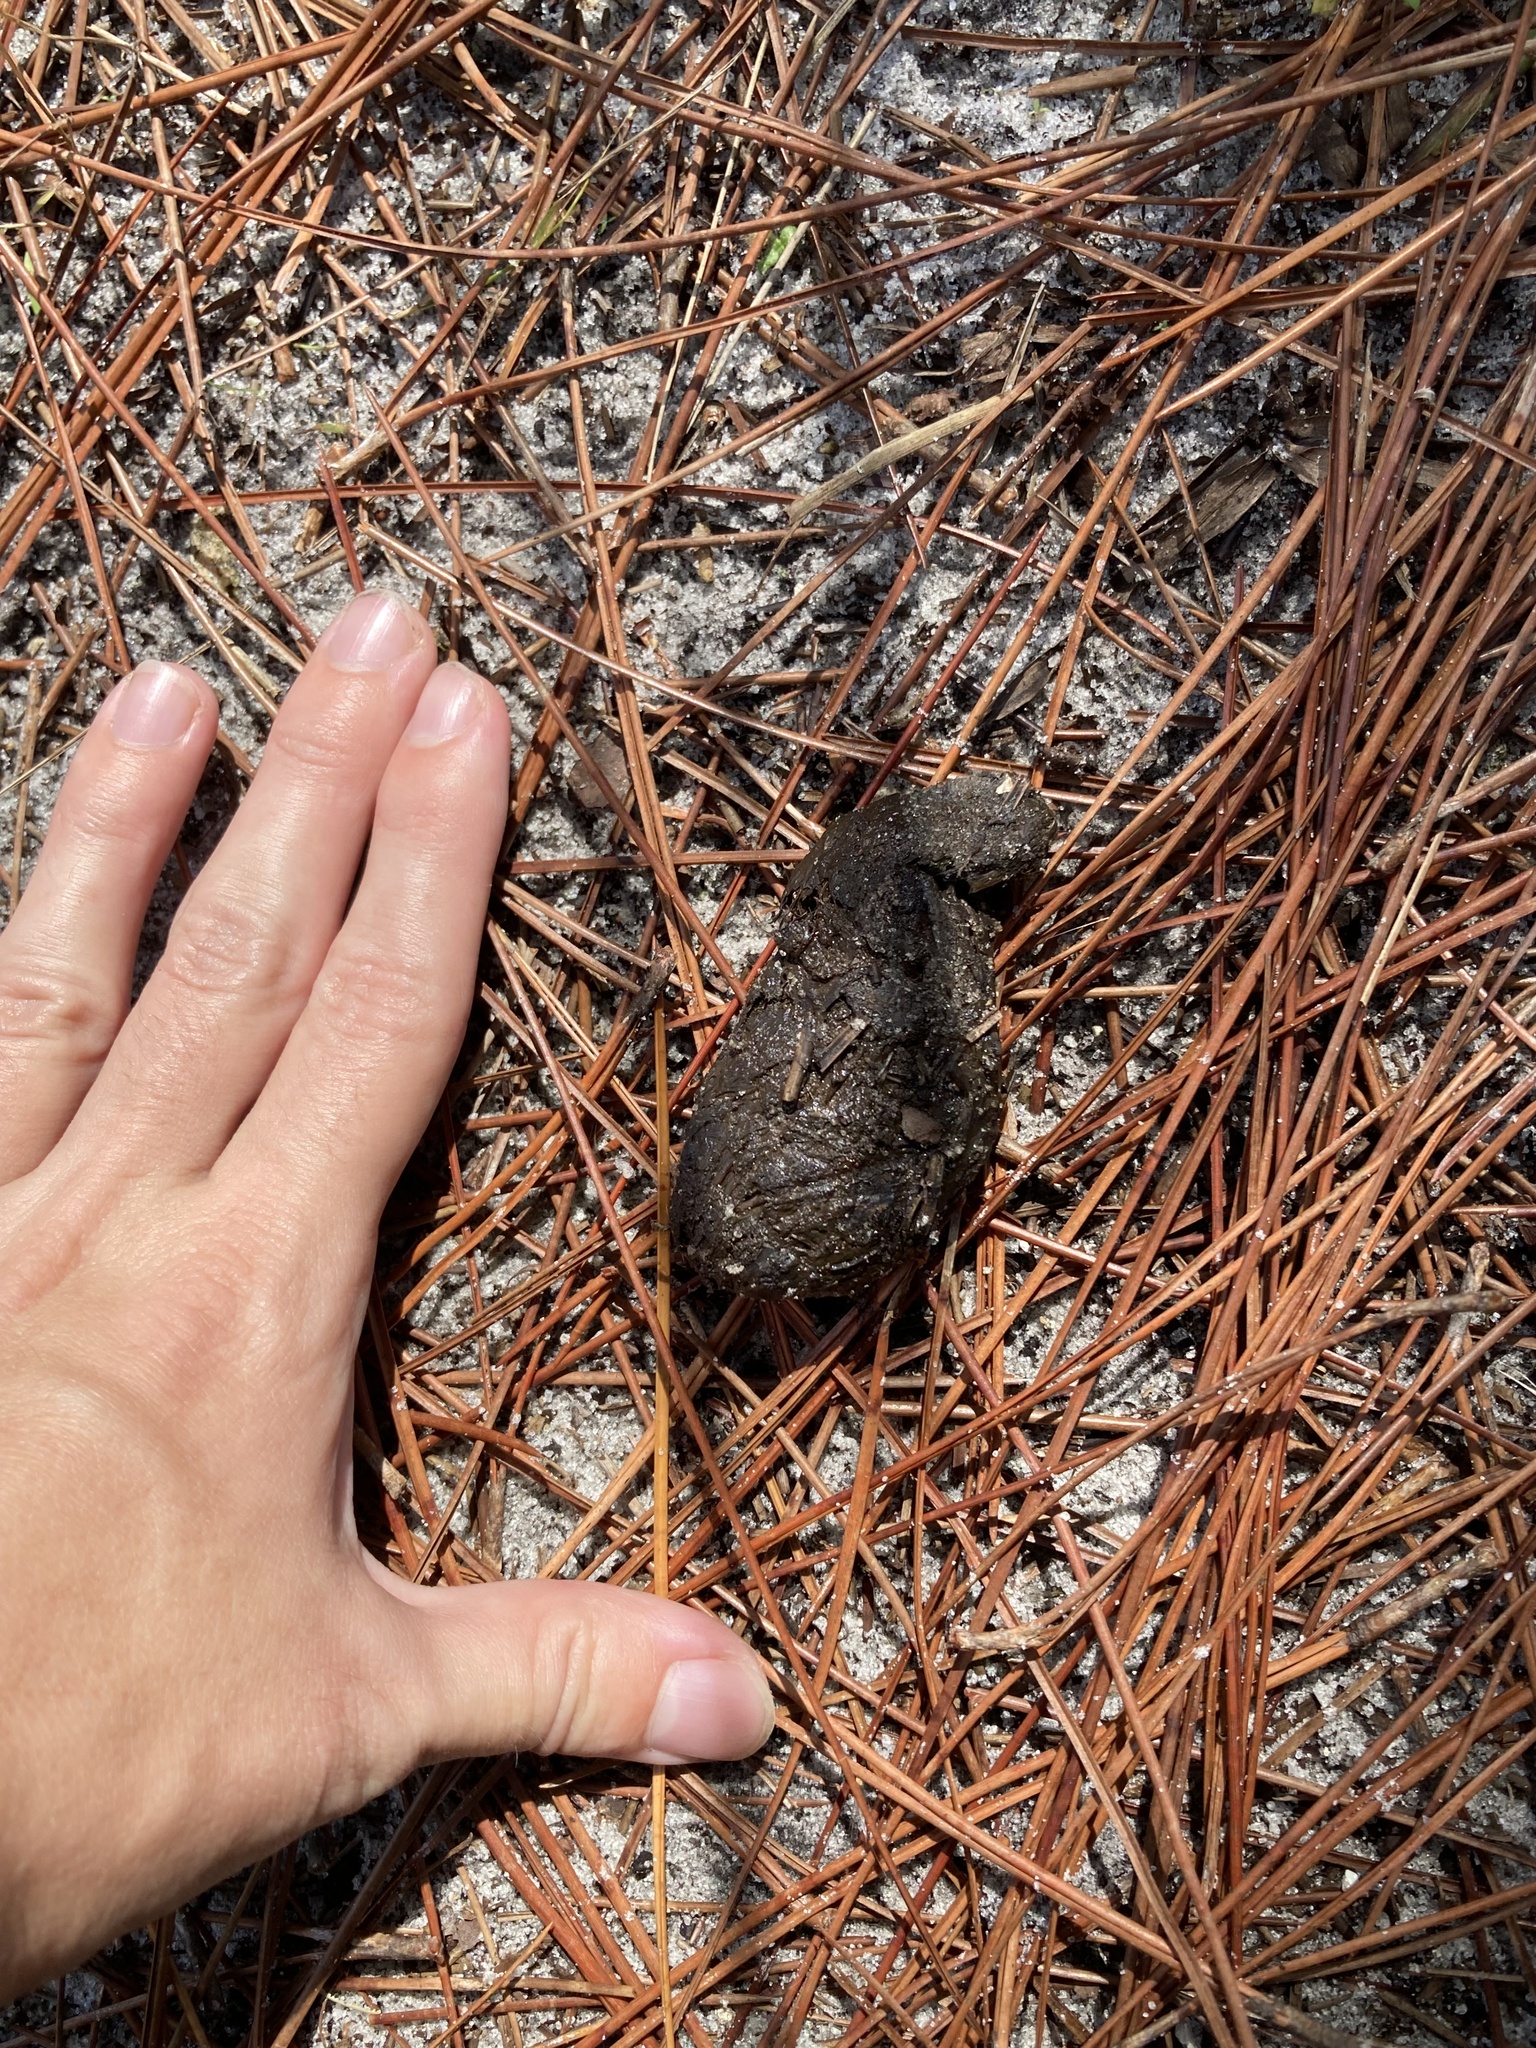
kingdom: Animalia
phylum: Chordata
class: Testudines
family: Testudinidae
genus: Gopherus
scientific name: Gopherus polyphemus
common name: Florida gopher tortoise
